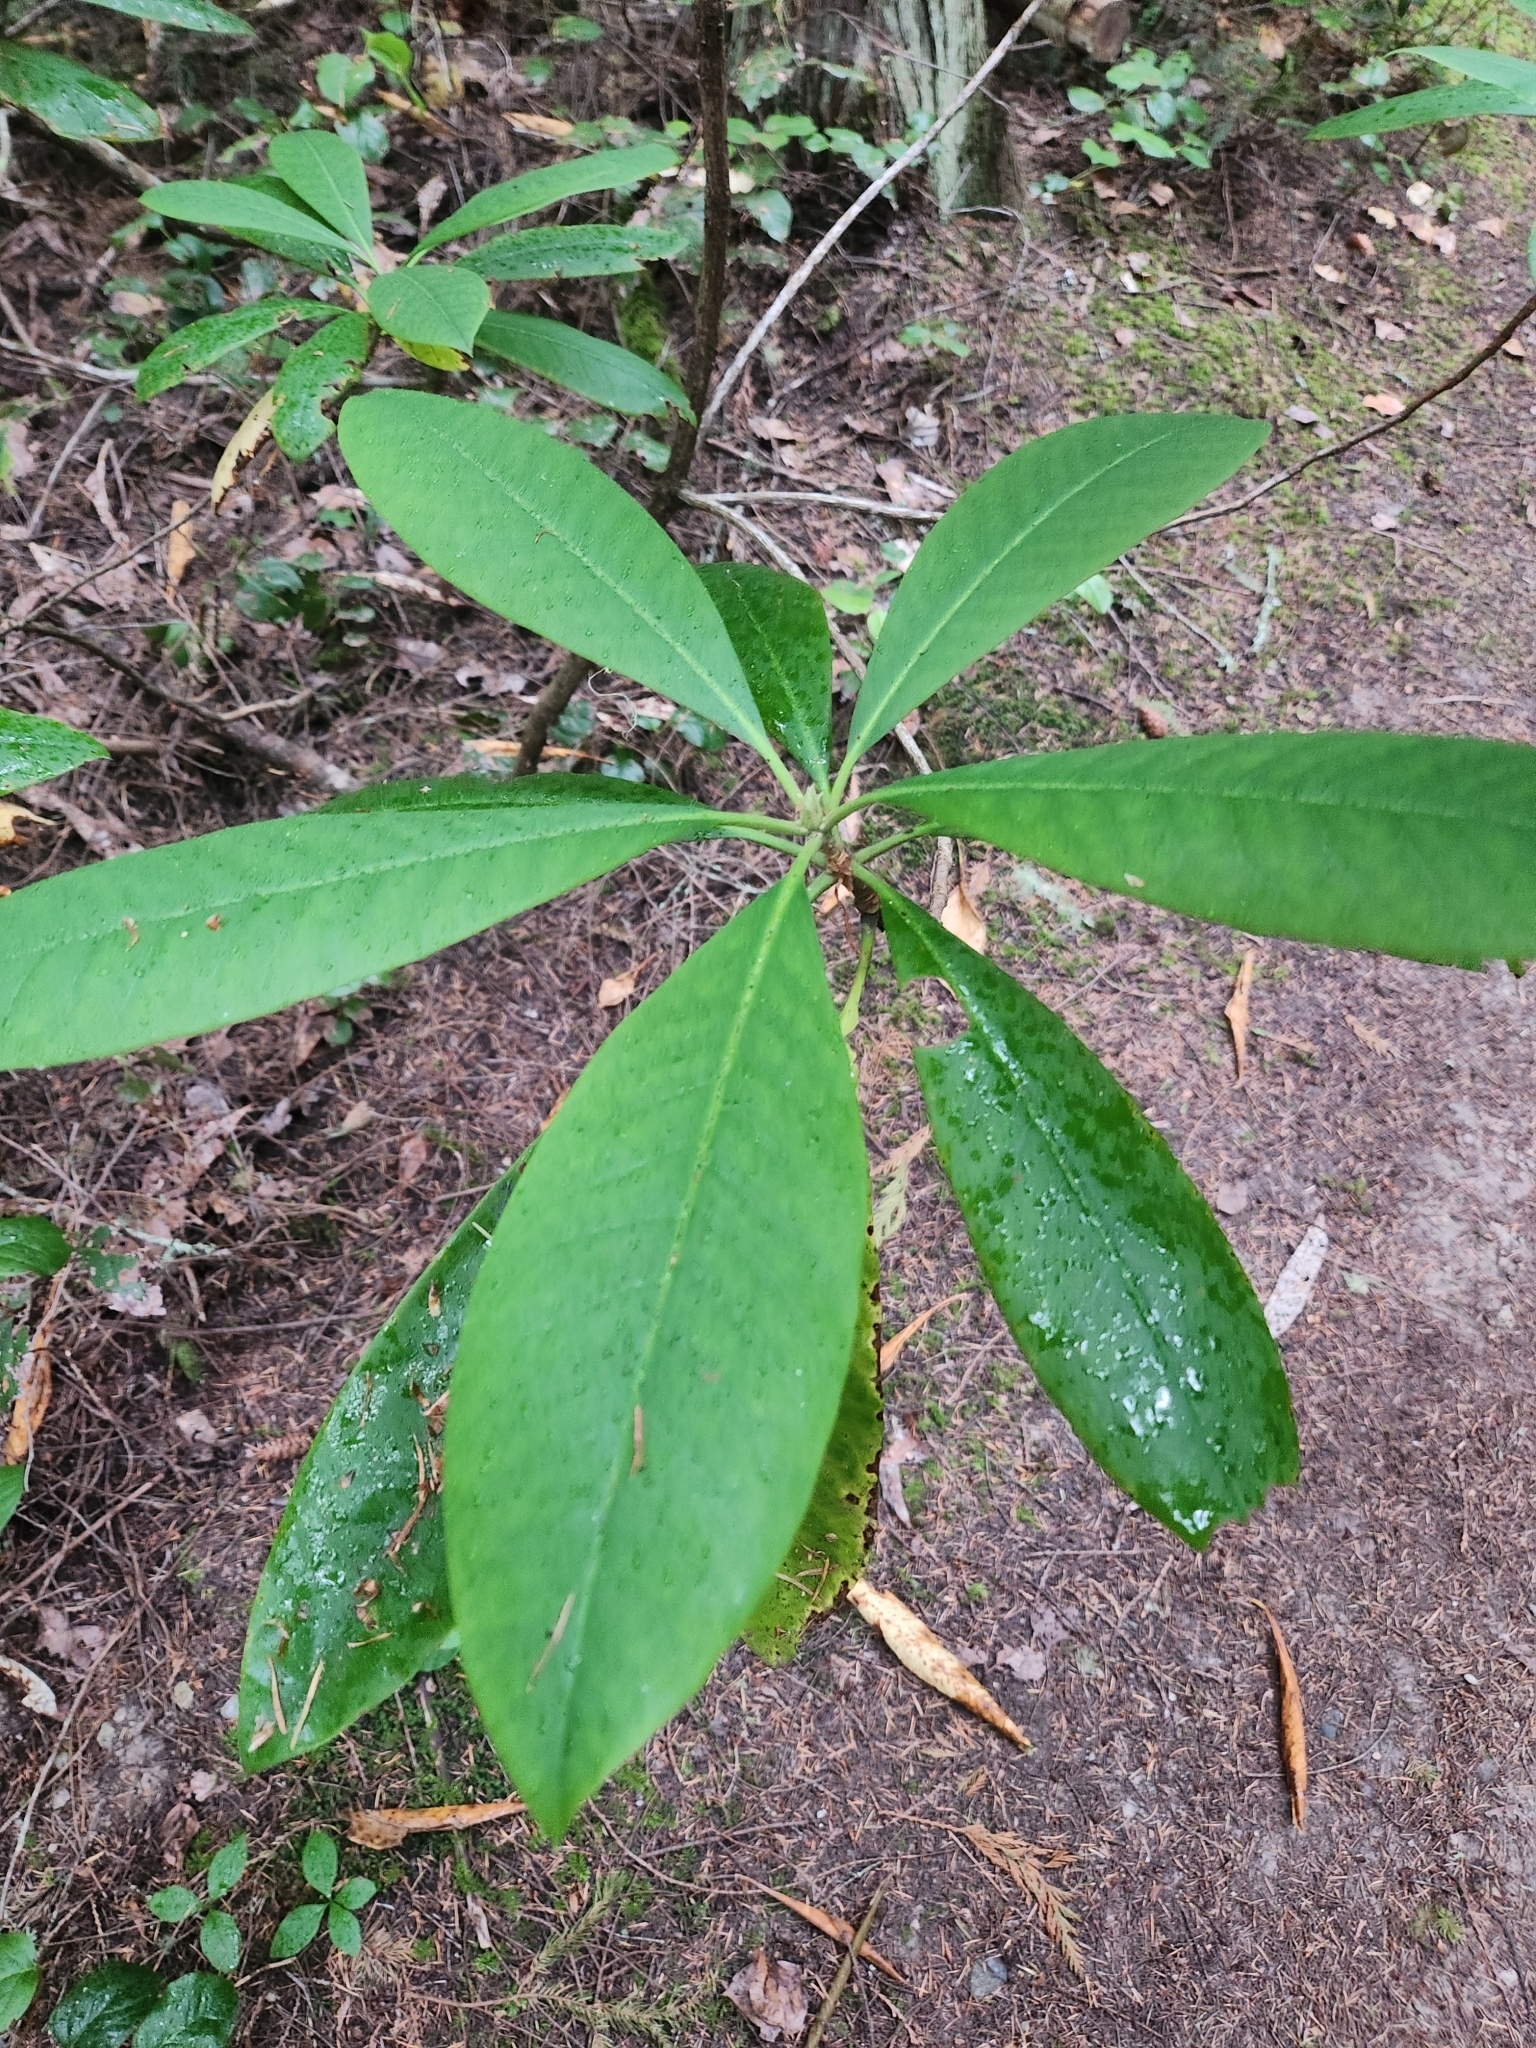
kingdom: Plantae
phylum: Tracheophyta
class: Magnoliopsida
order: Ericales
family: Ericaceae
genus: Rhododendron
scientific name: Rhododendron macrophyllum
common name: California rose bay
